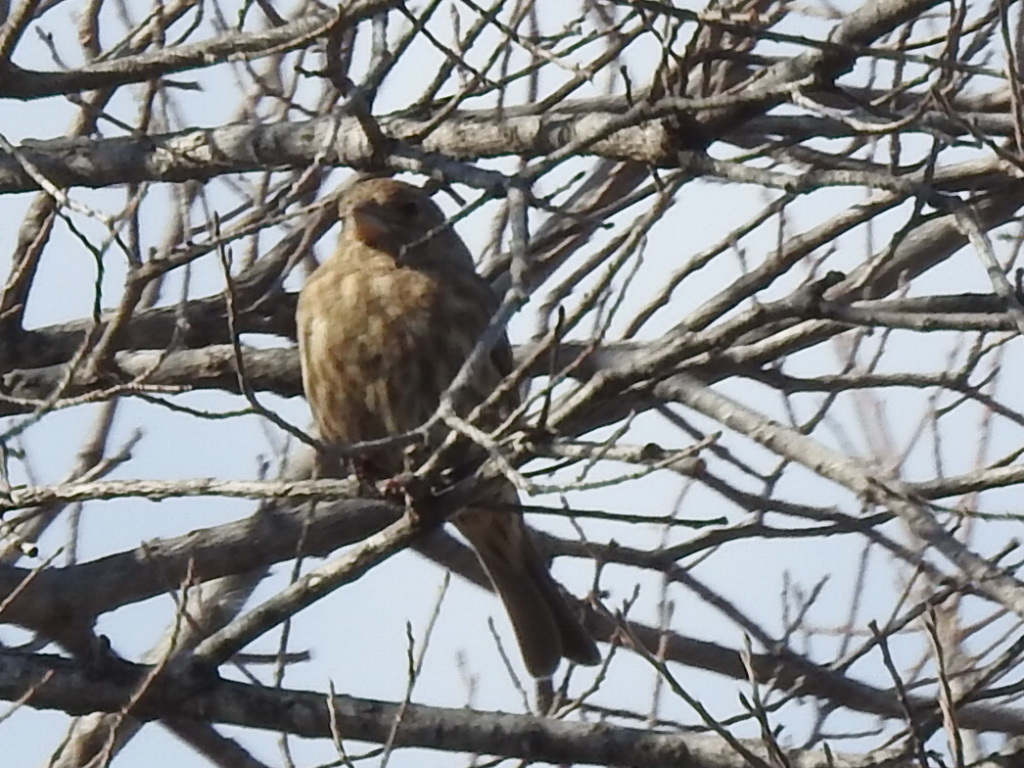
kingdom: Animalia
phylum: Chordata
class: Aves
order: Passeriformes
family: Fringillidae
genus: Haemorhous
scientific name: Haemorhous mexicanus
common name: House finch
